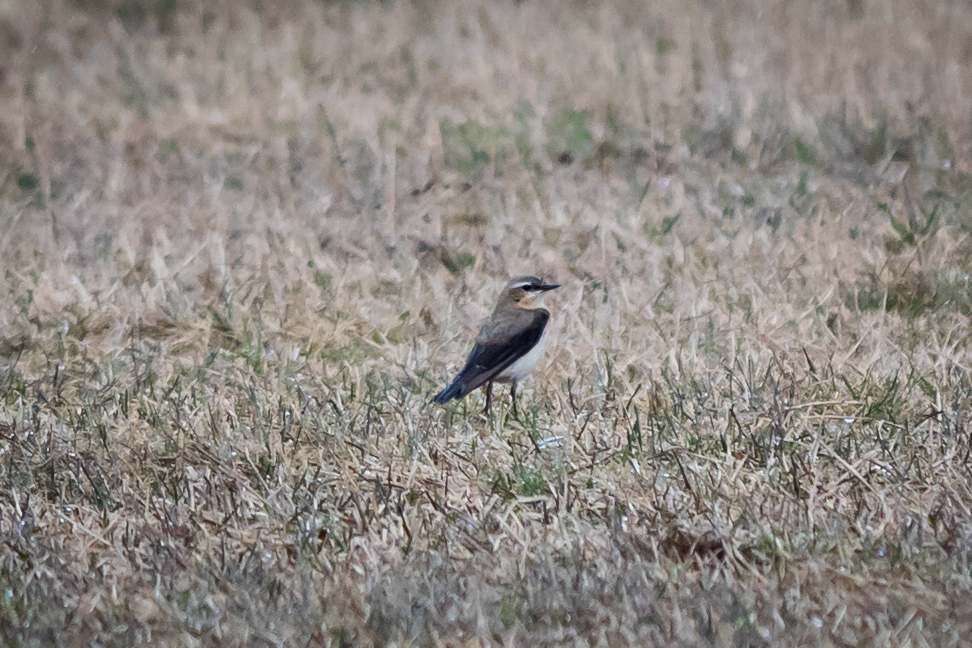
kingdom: Animalia
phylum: Chordata
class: Aves
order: Passeriformes
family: Muscicapidae
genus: Oenanthe
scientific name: Oenanthe oenanthe
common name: Northern wheatear
